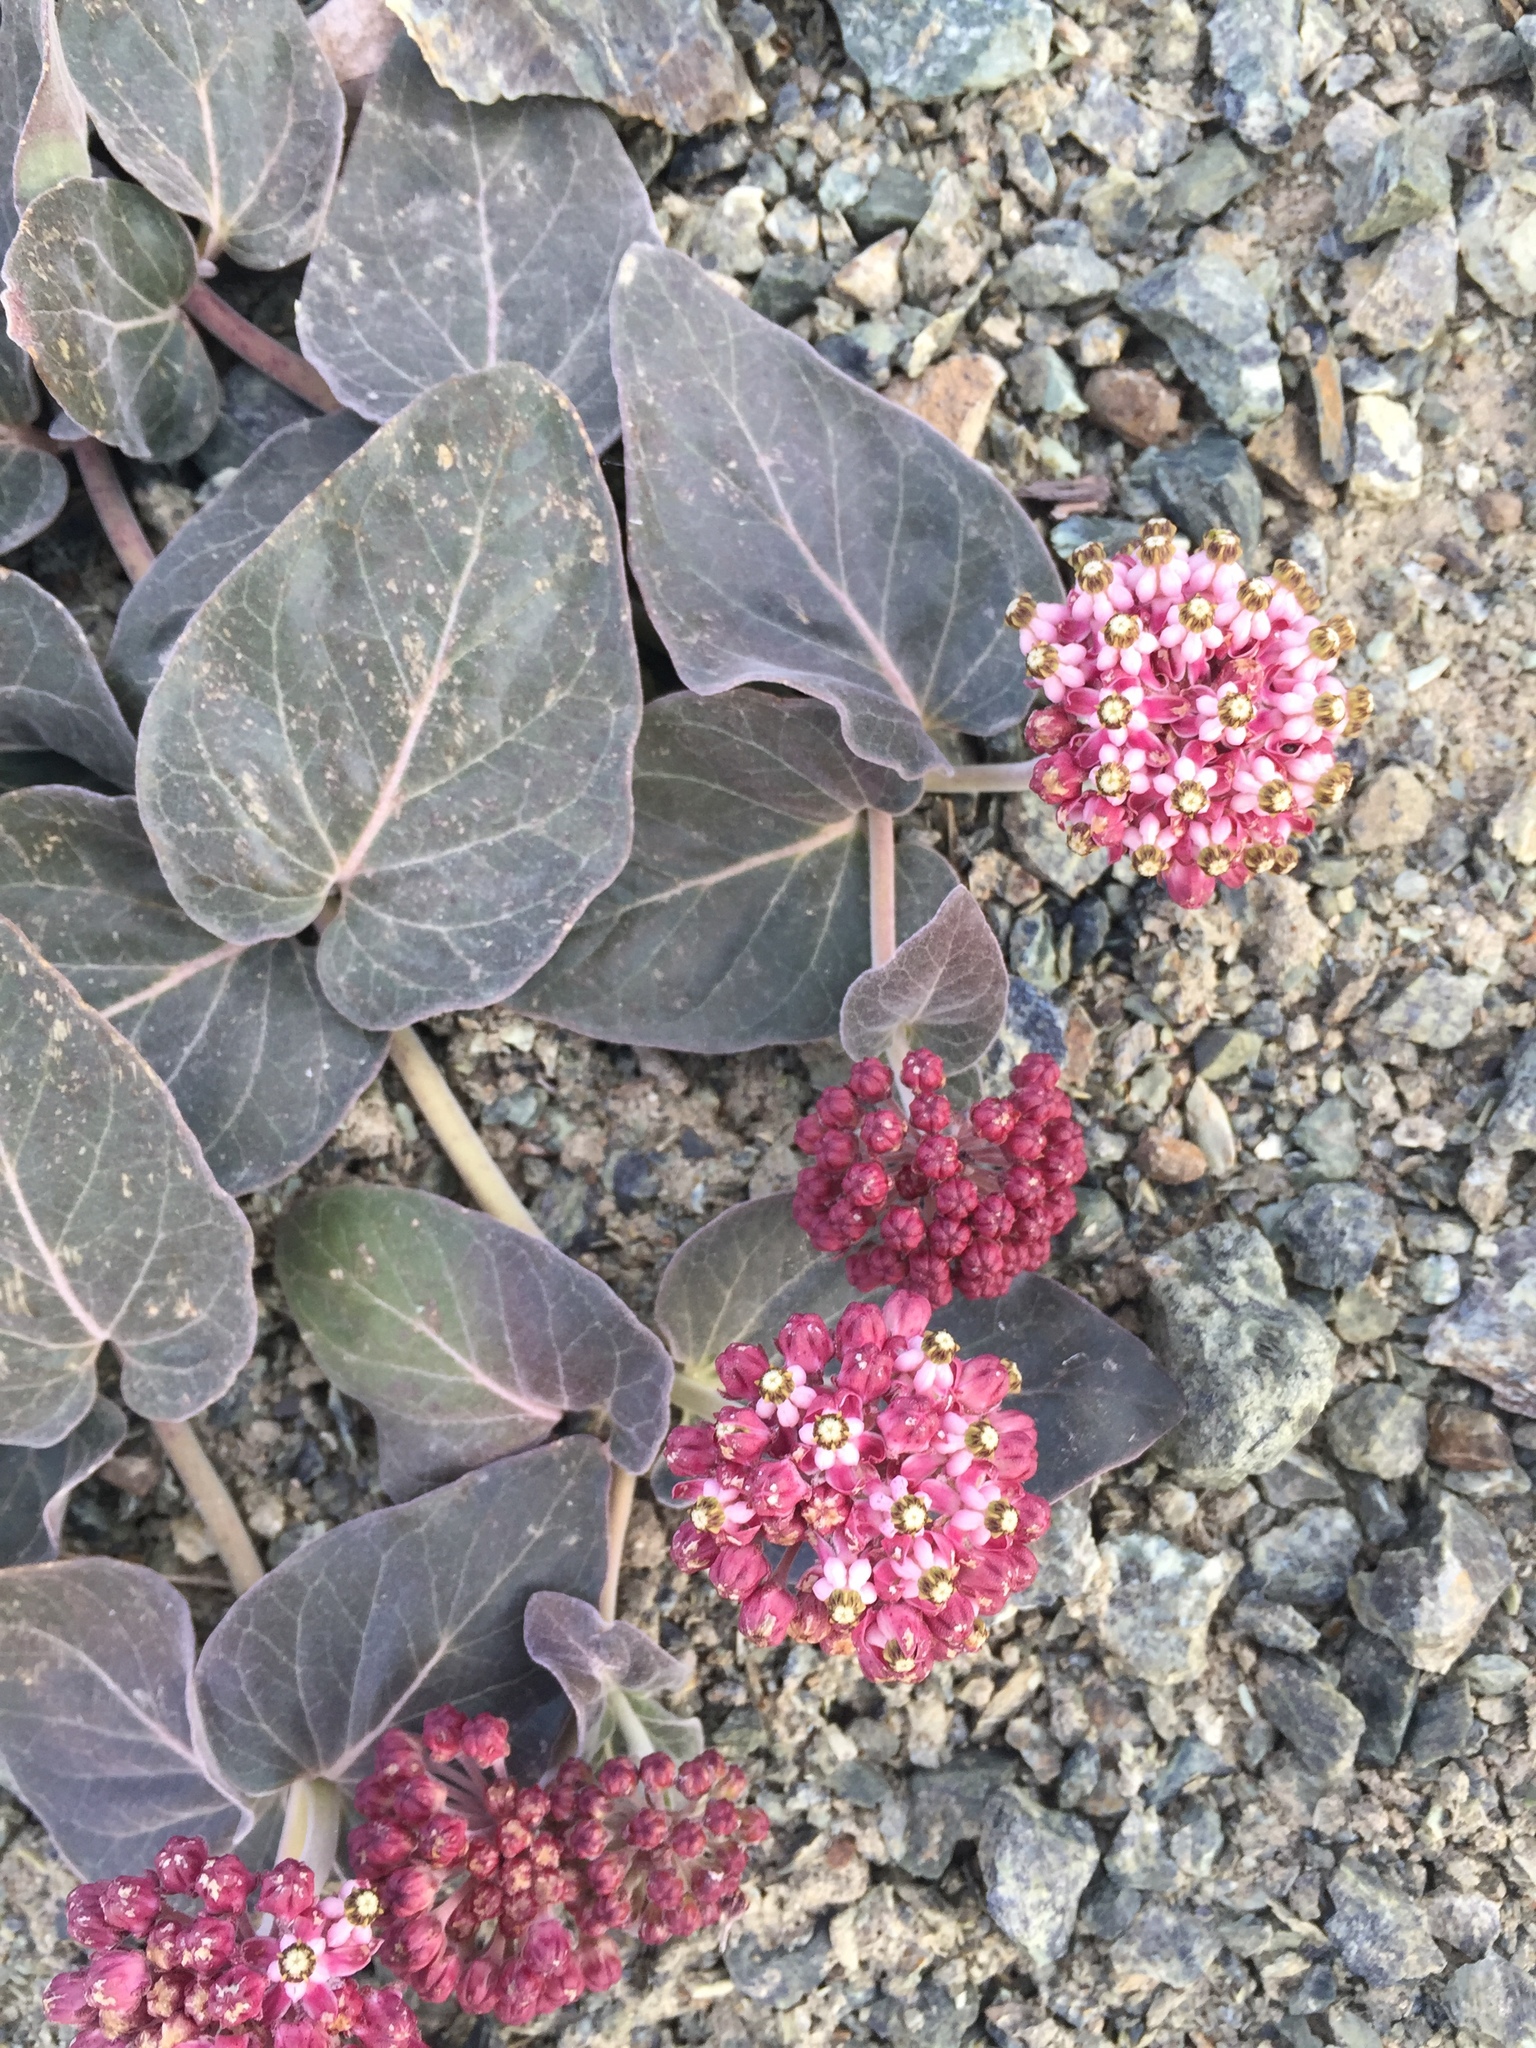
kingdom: Plantae
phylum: Tracheophyta
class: Magnoliopsida
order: Gentianales
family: Apocynaceae
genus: Asclepias
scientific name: Asclepias solanoana
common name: Serpentine milkweed
